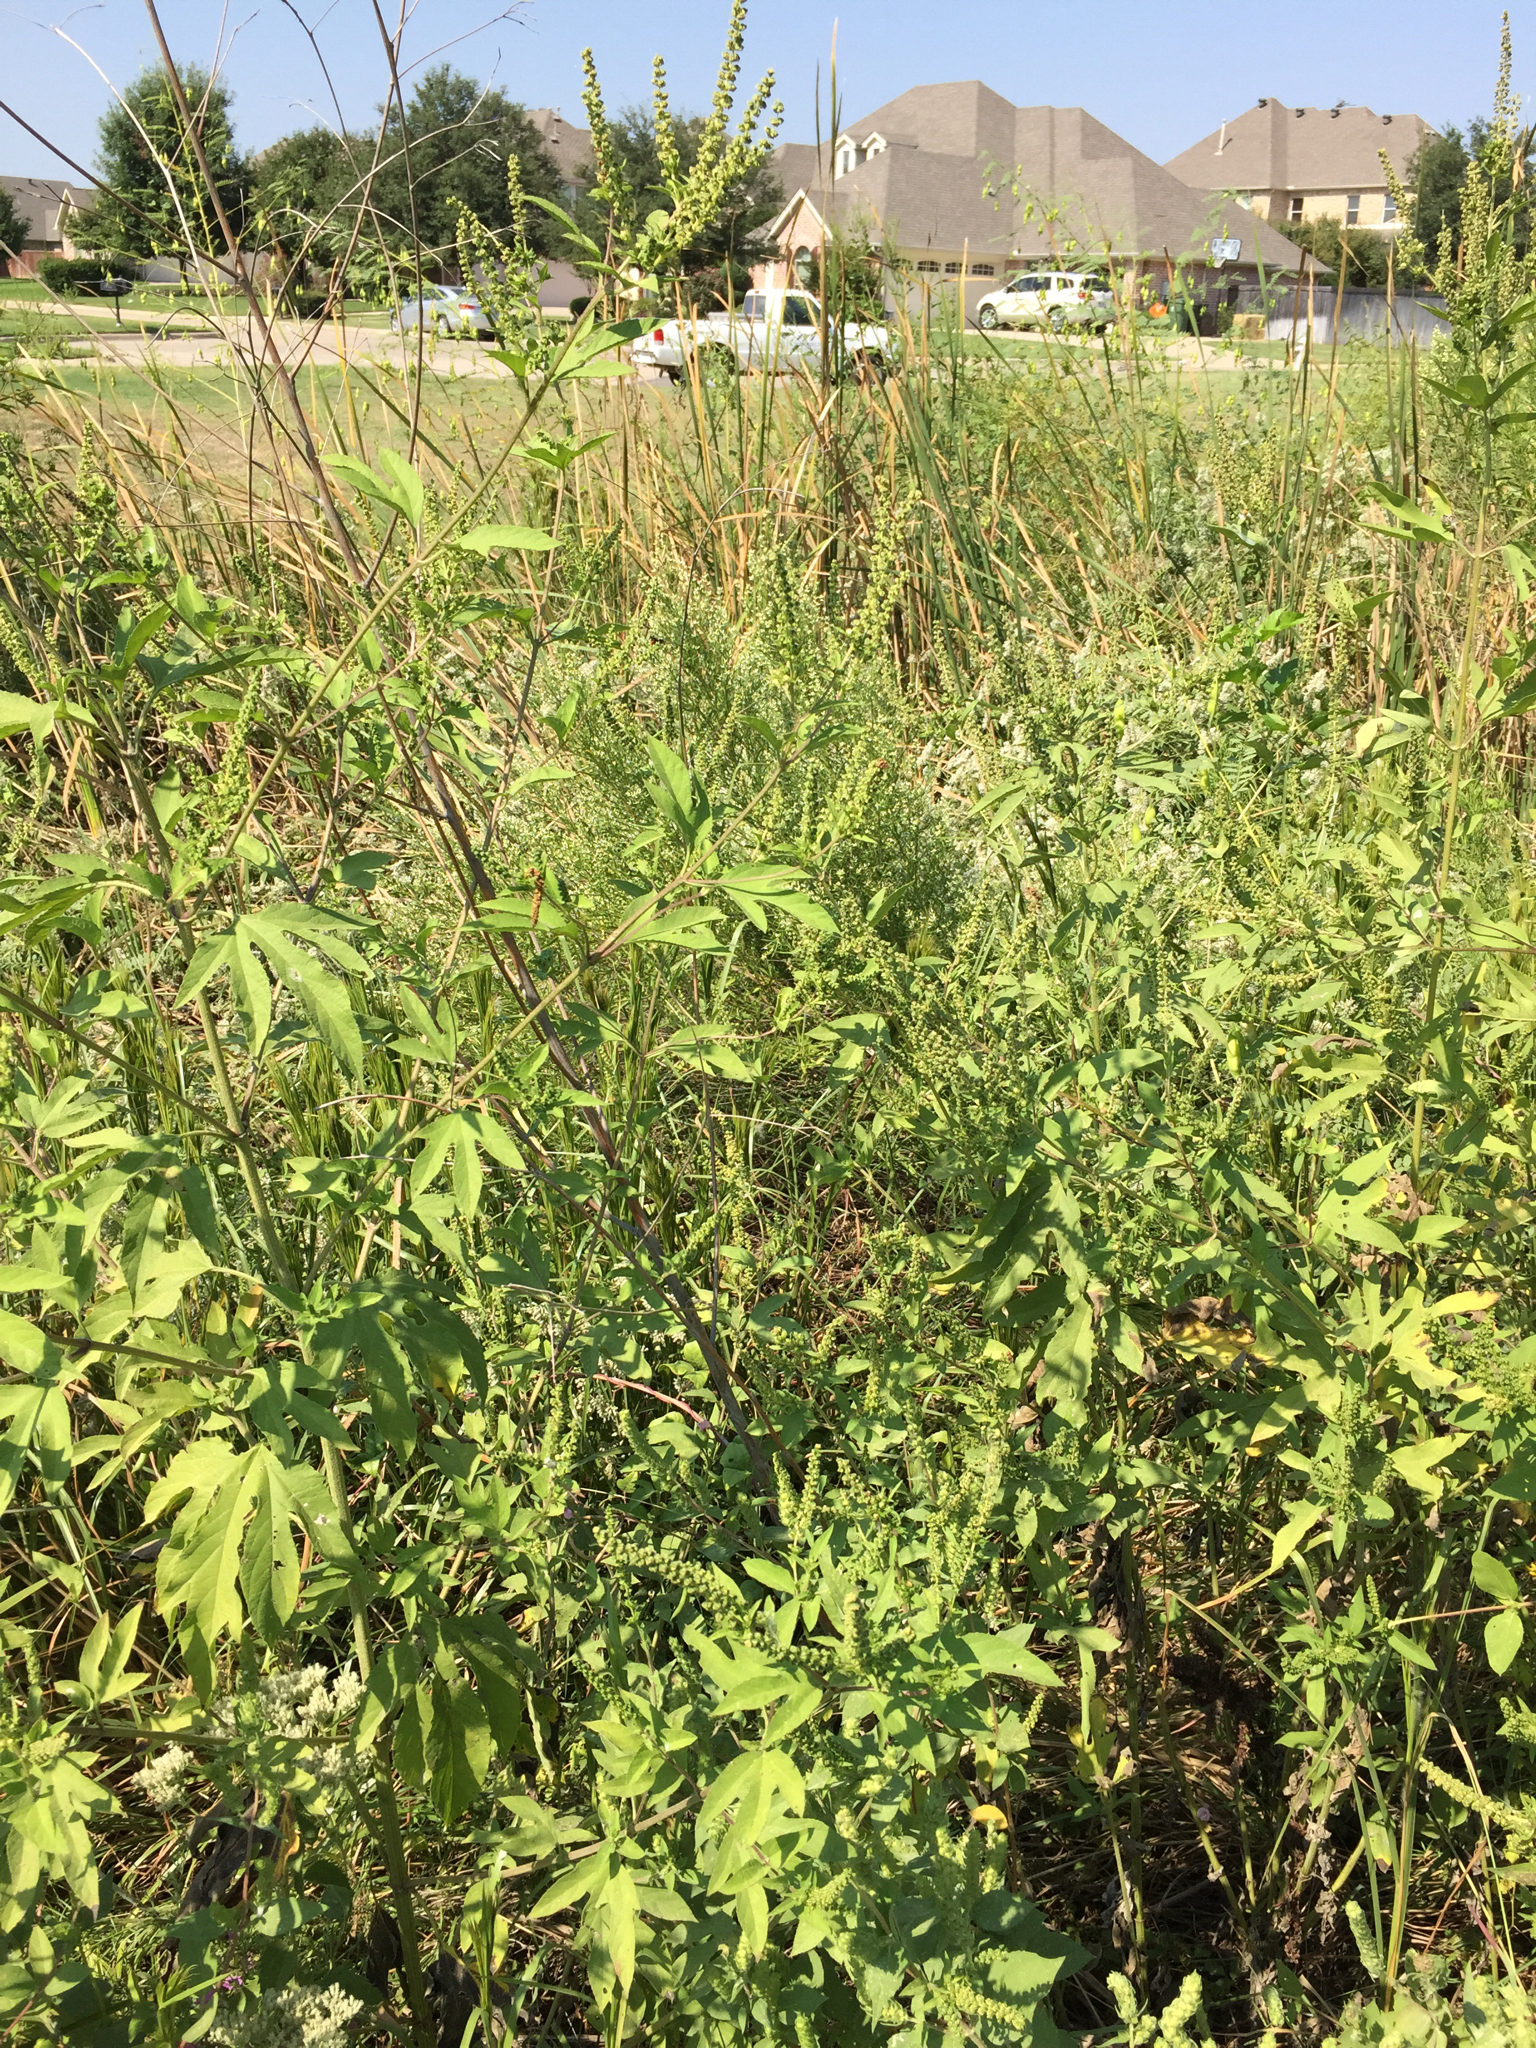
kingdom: Plantae
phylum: Tracheophyta
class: Magnoliopsida
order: Asterales
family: Asteraceae
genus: Ambrosia
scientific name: Ambrosia trifida
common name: Giant ragweed
